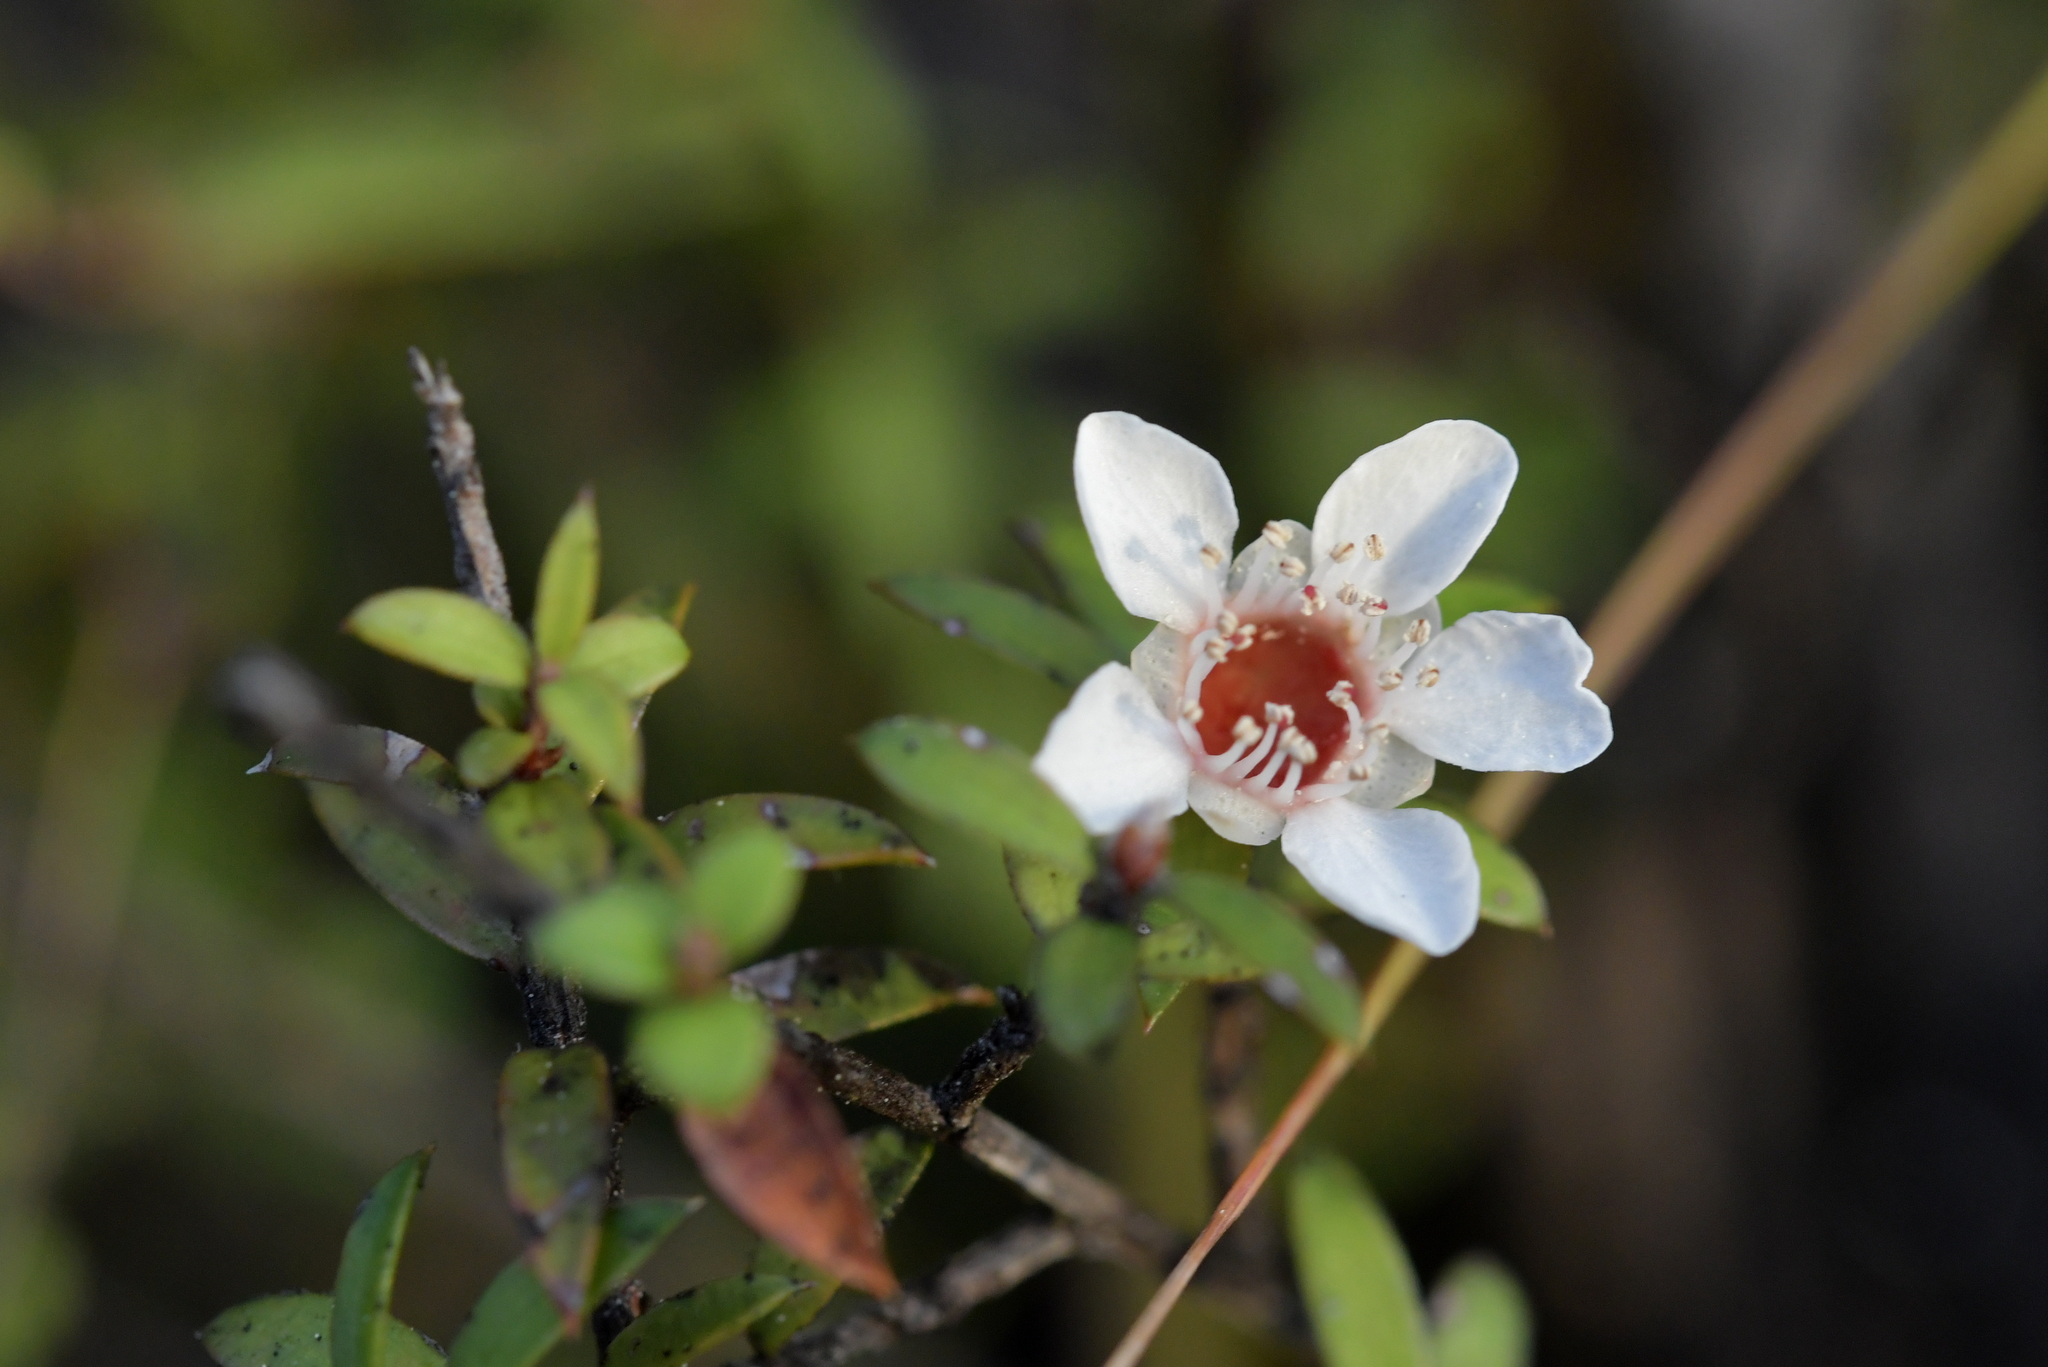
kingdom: Plantae
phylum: Tracheophyta
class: Magnoliopsida
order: Myrtales
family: Myrtaceae
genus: Leptospermum
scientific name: Leptospermum scoparium
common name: Broom tea-tree
